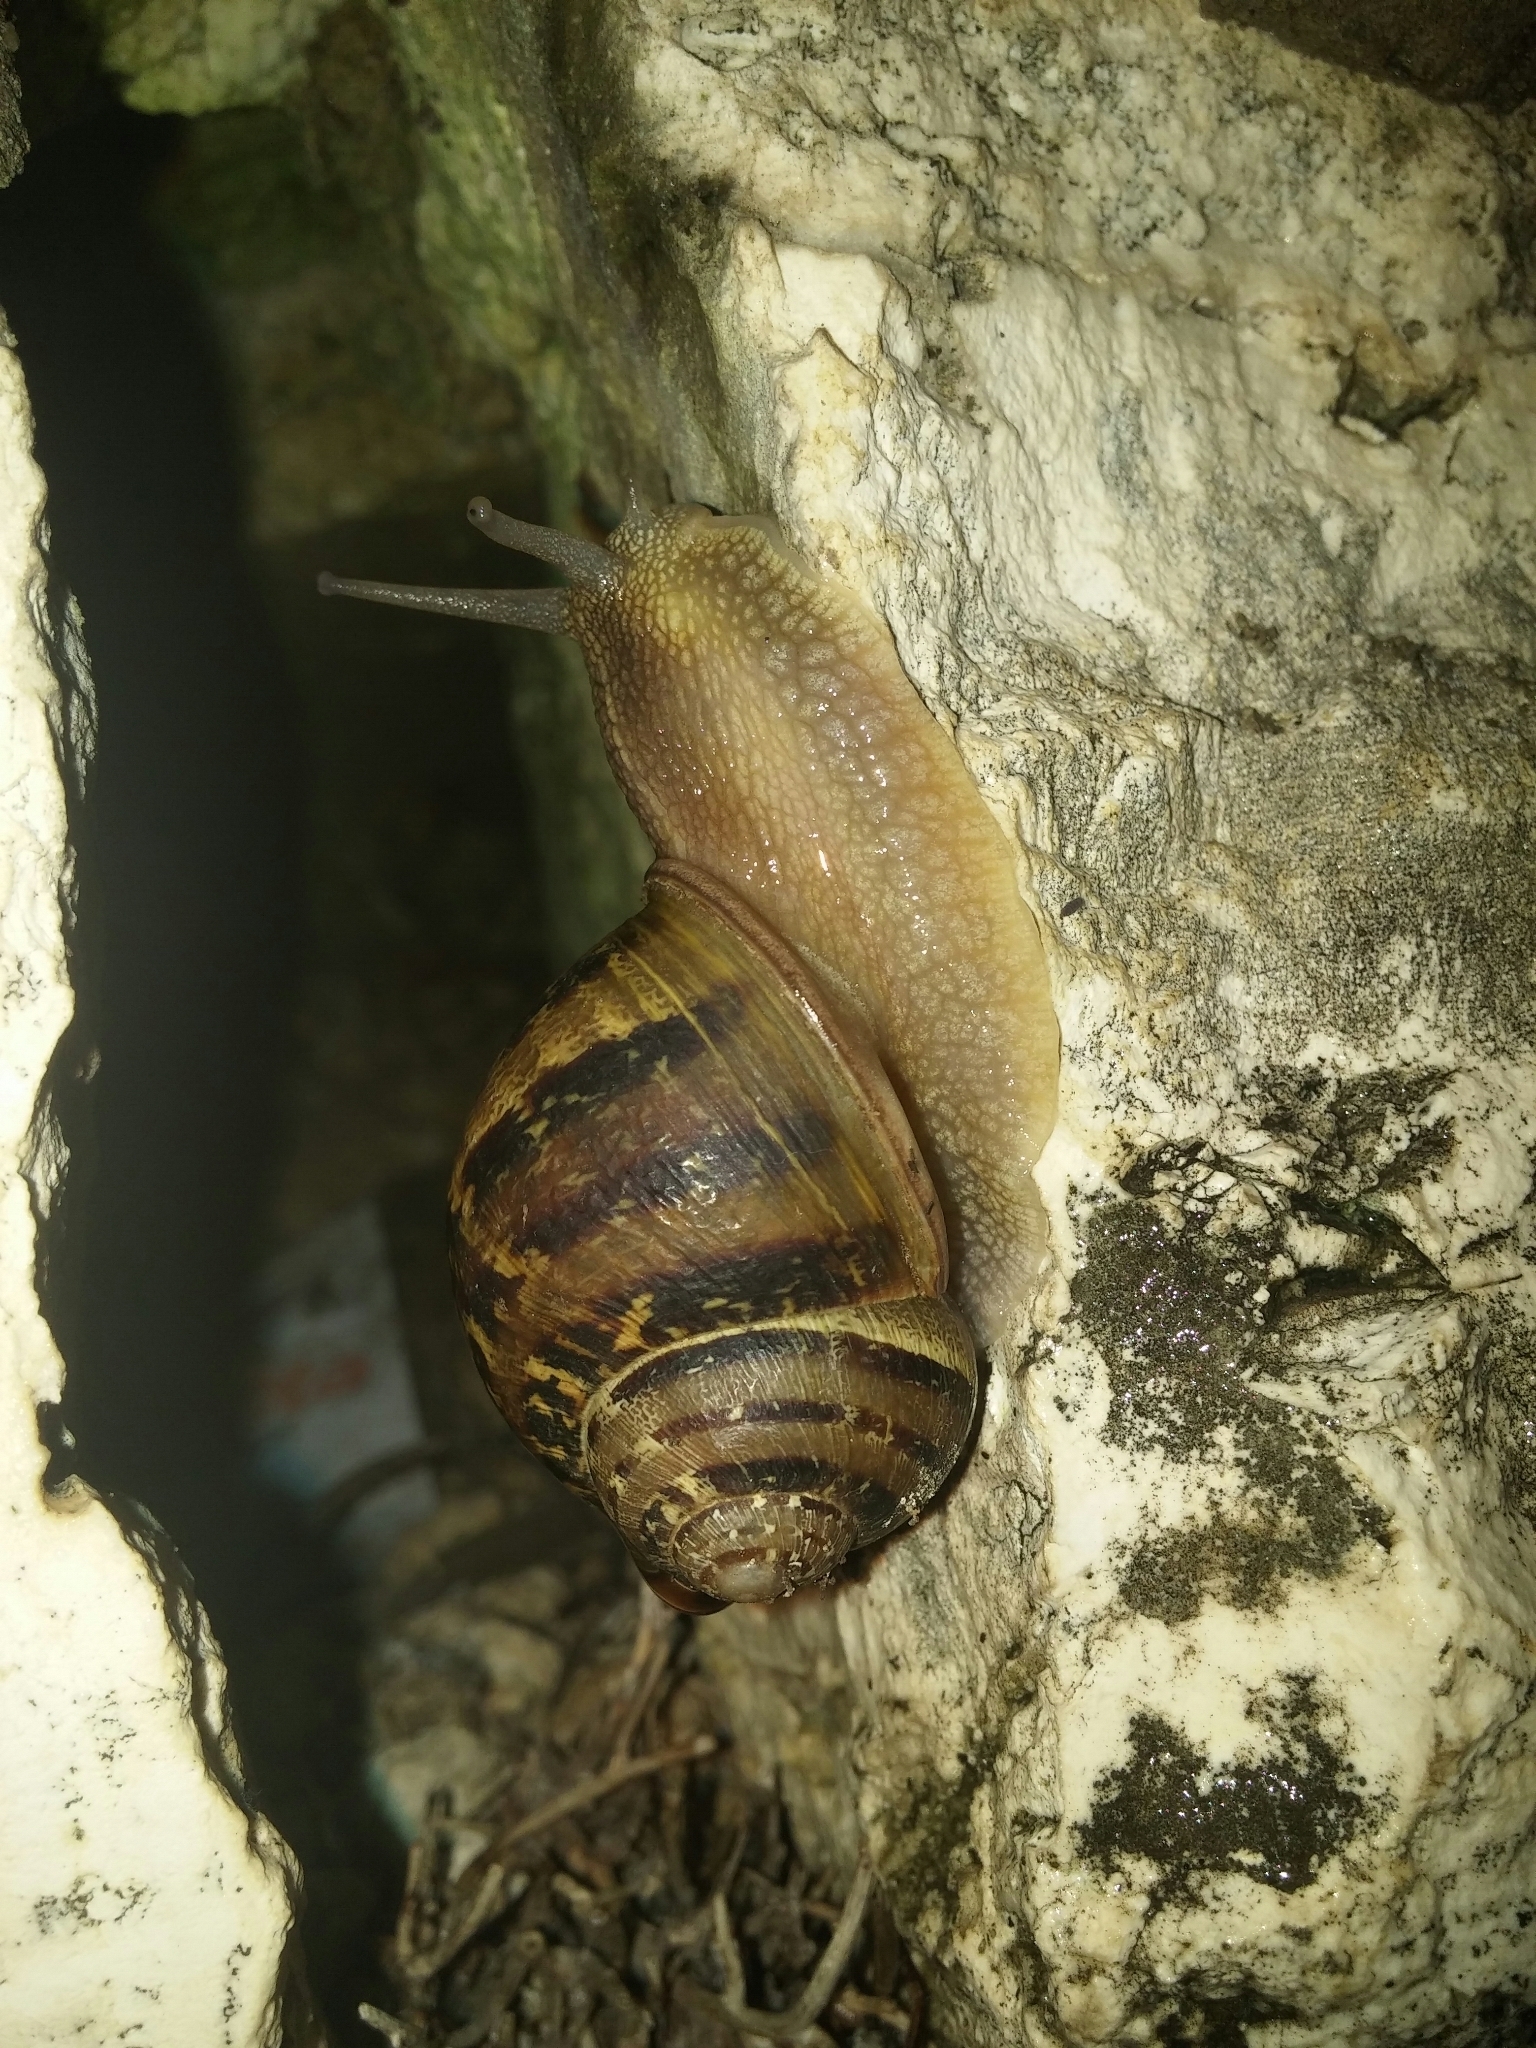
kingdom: Animalia
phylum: Mollusca
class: Gastropoda
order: Stylommatophora
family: Helicidae
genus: Cornu
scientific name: Cornu aspersum
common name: Brown garden snail
